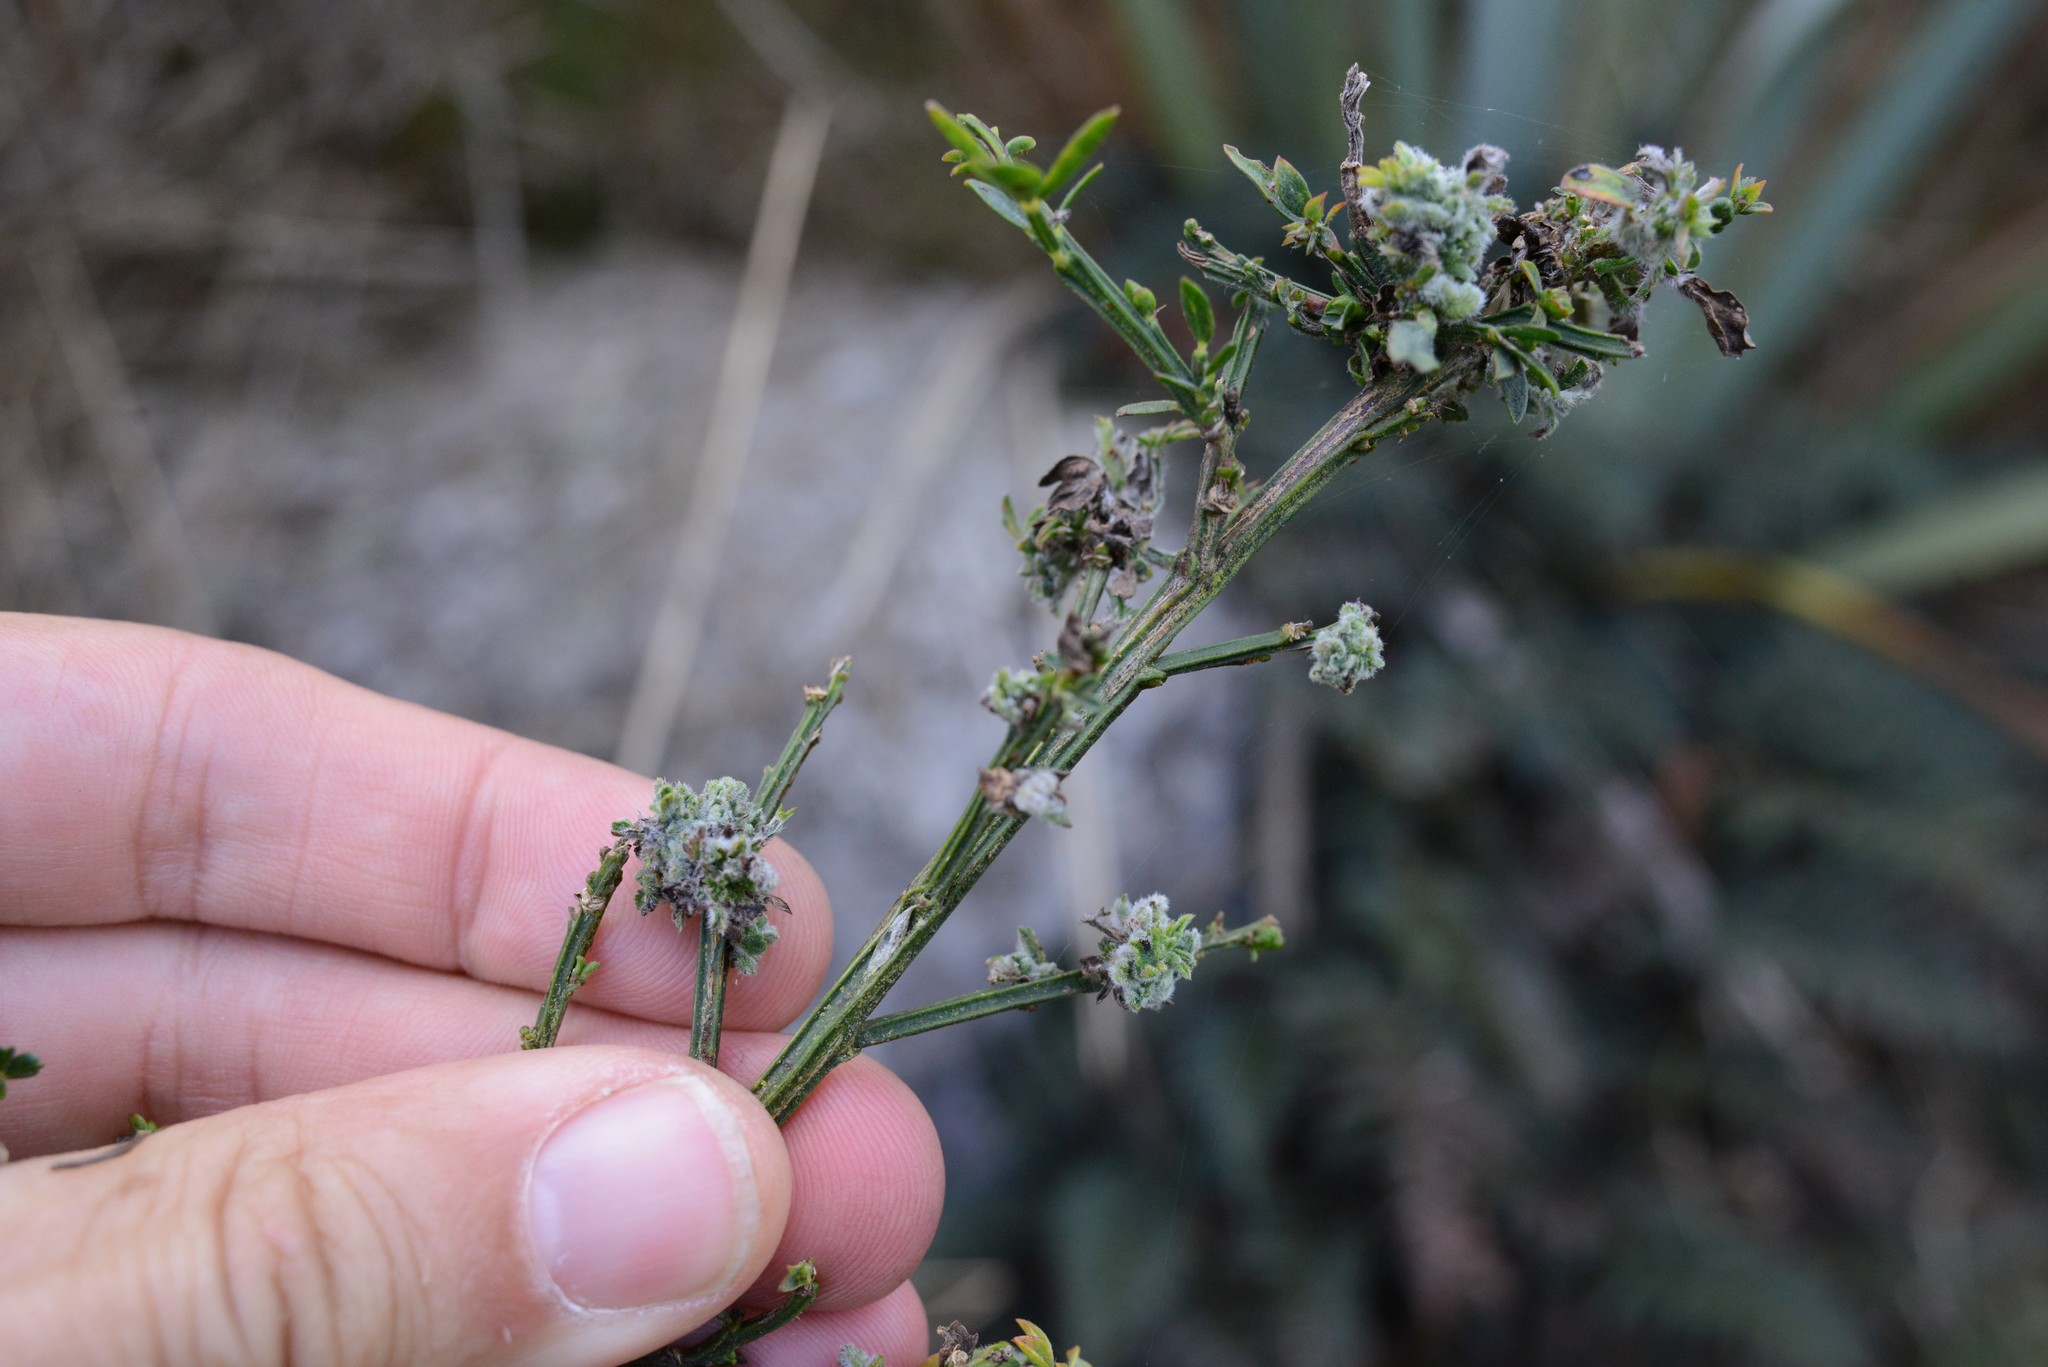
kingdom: Animalia
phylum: Arthropoda
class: Arachnida
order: Trombidiformes
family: Eriophyidae
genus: Aceria
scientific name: Aceria genistae
